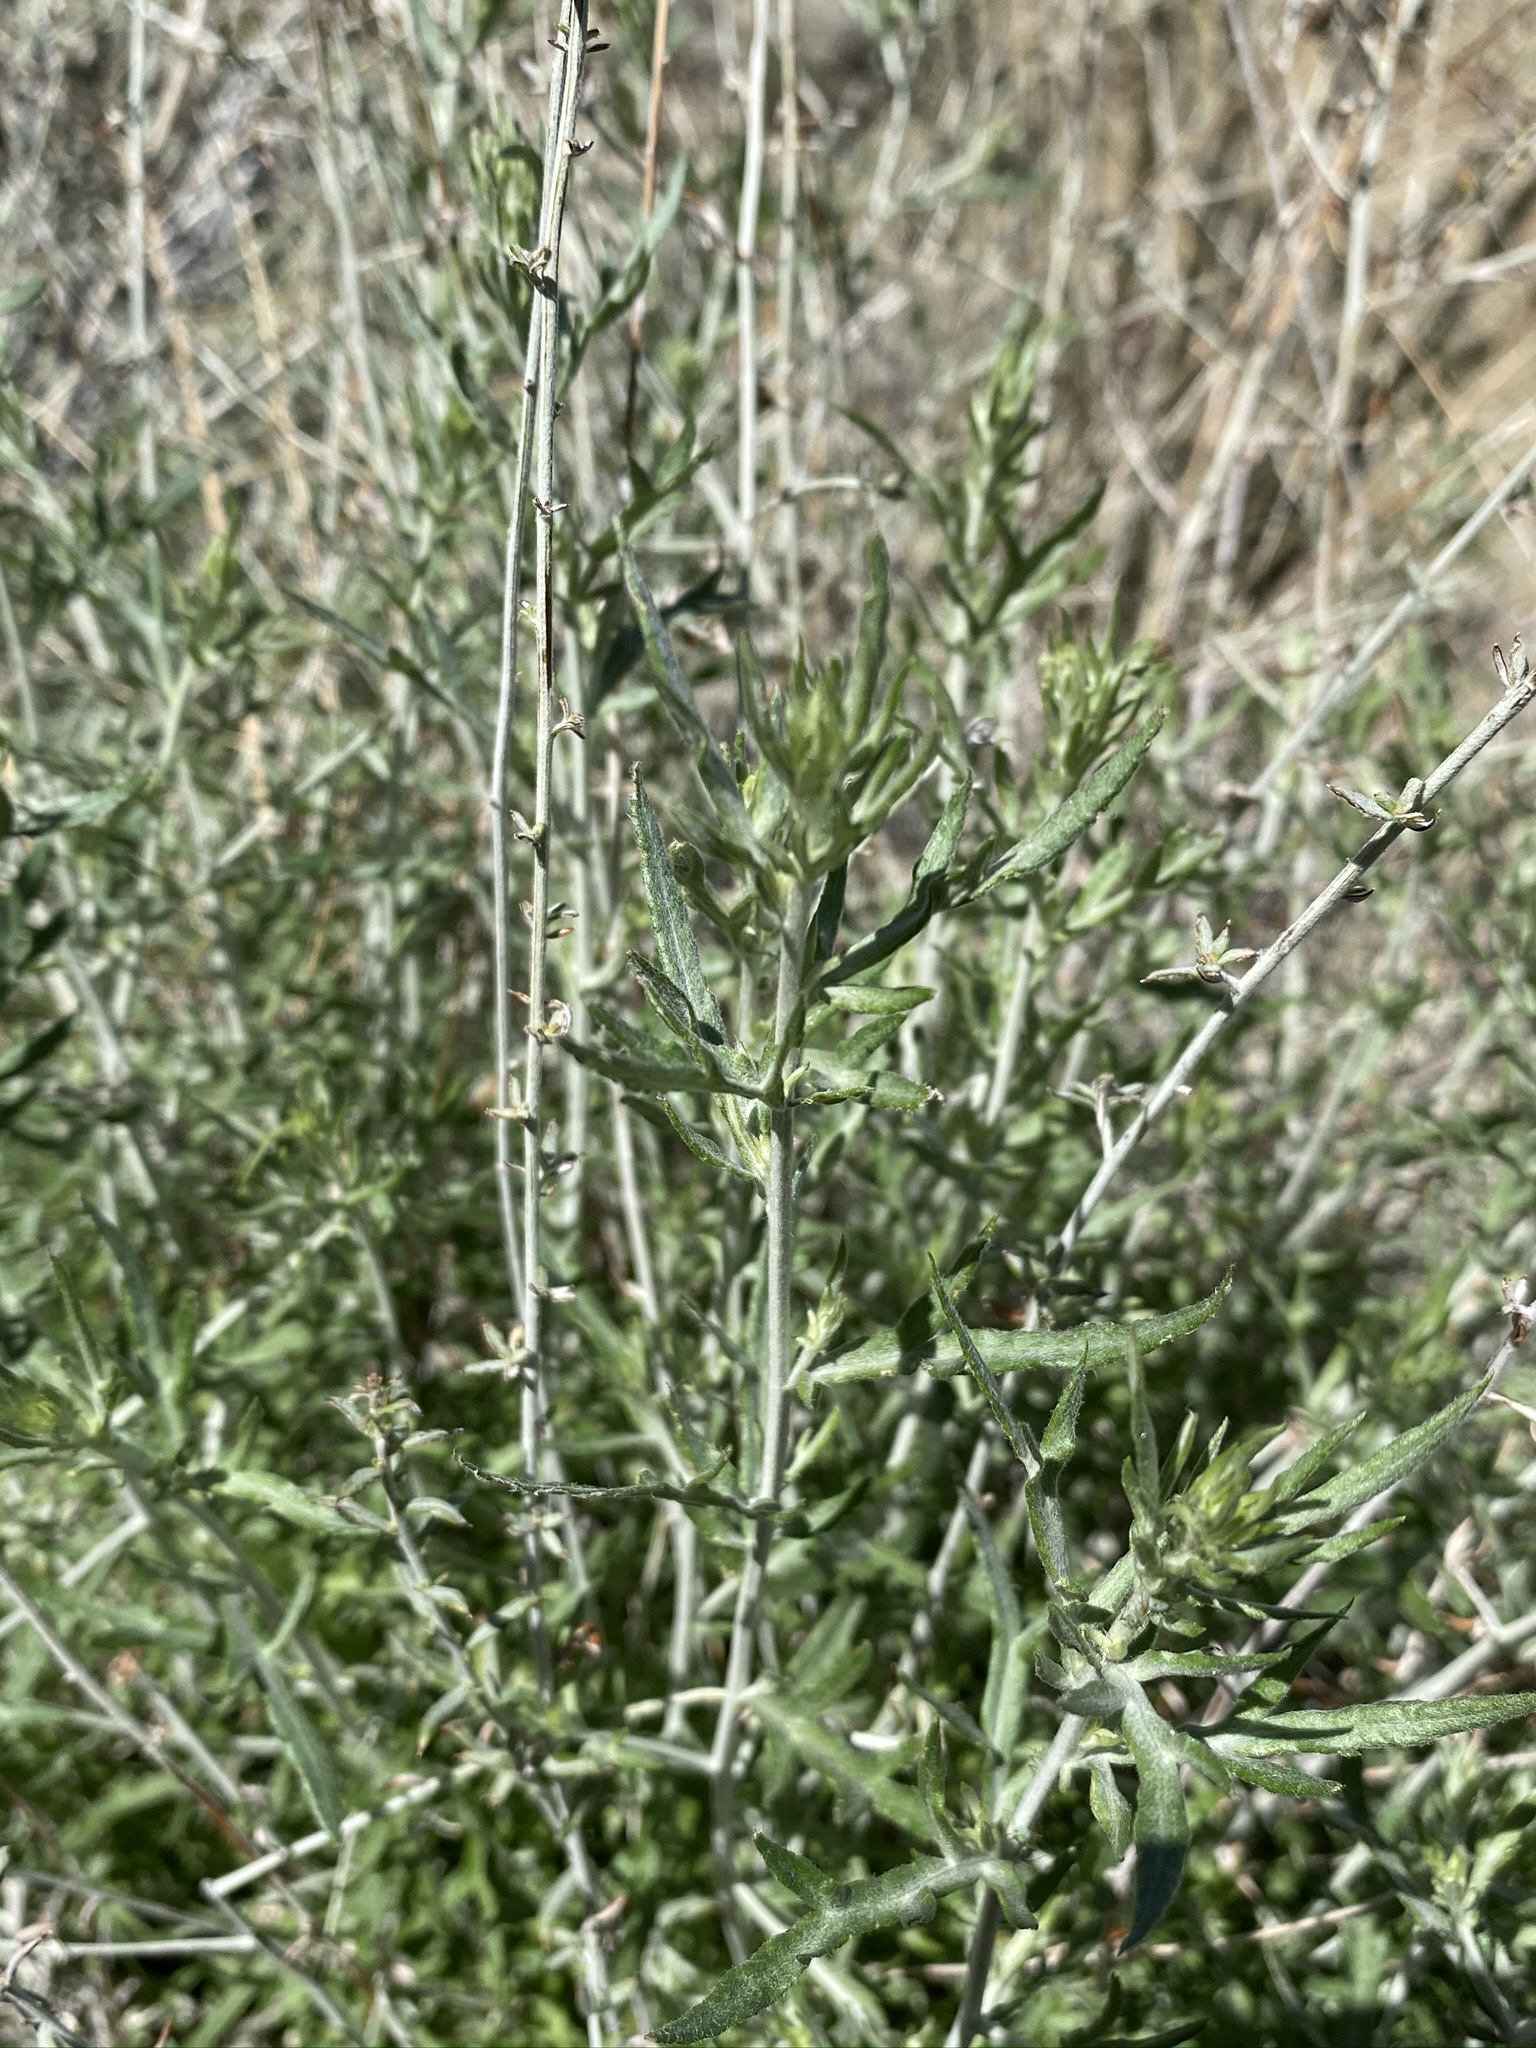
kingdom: Plantae
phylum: Tracheophyta
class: Magnoliopsida
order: Asterales
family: Asteraceae
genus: Artemisia
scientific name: Artemisia ludoviciana
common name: Western mugwort
